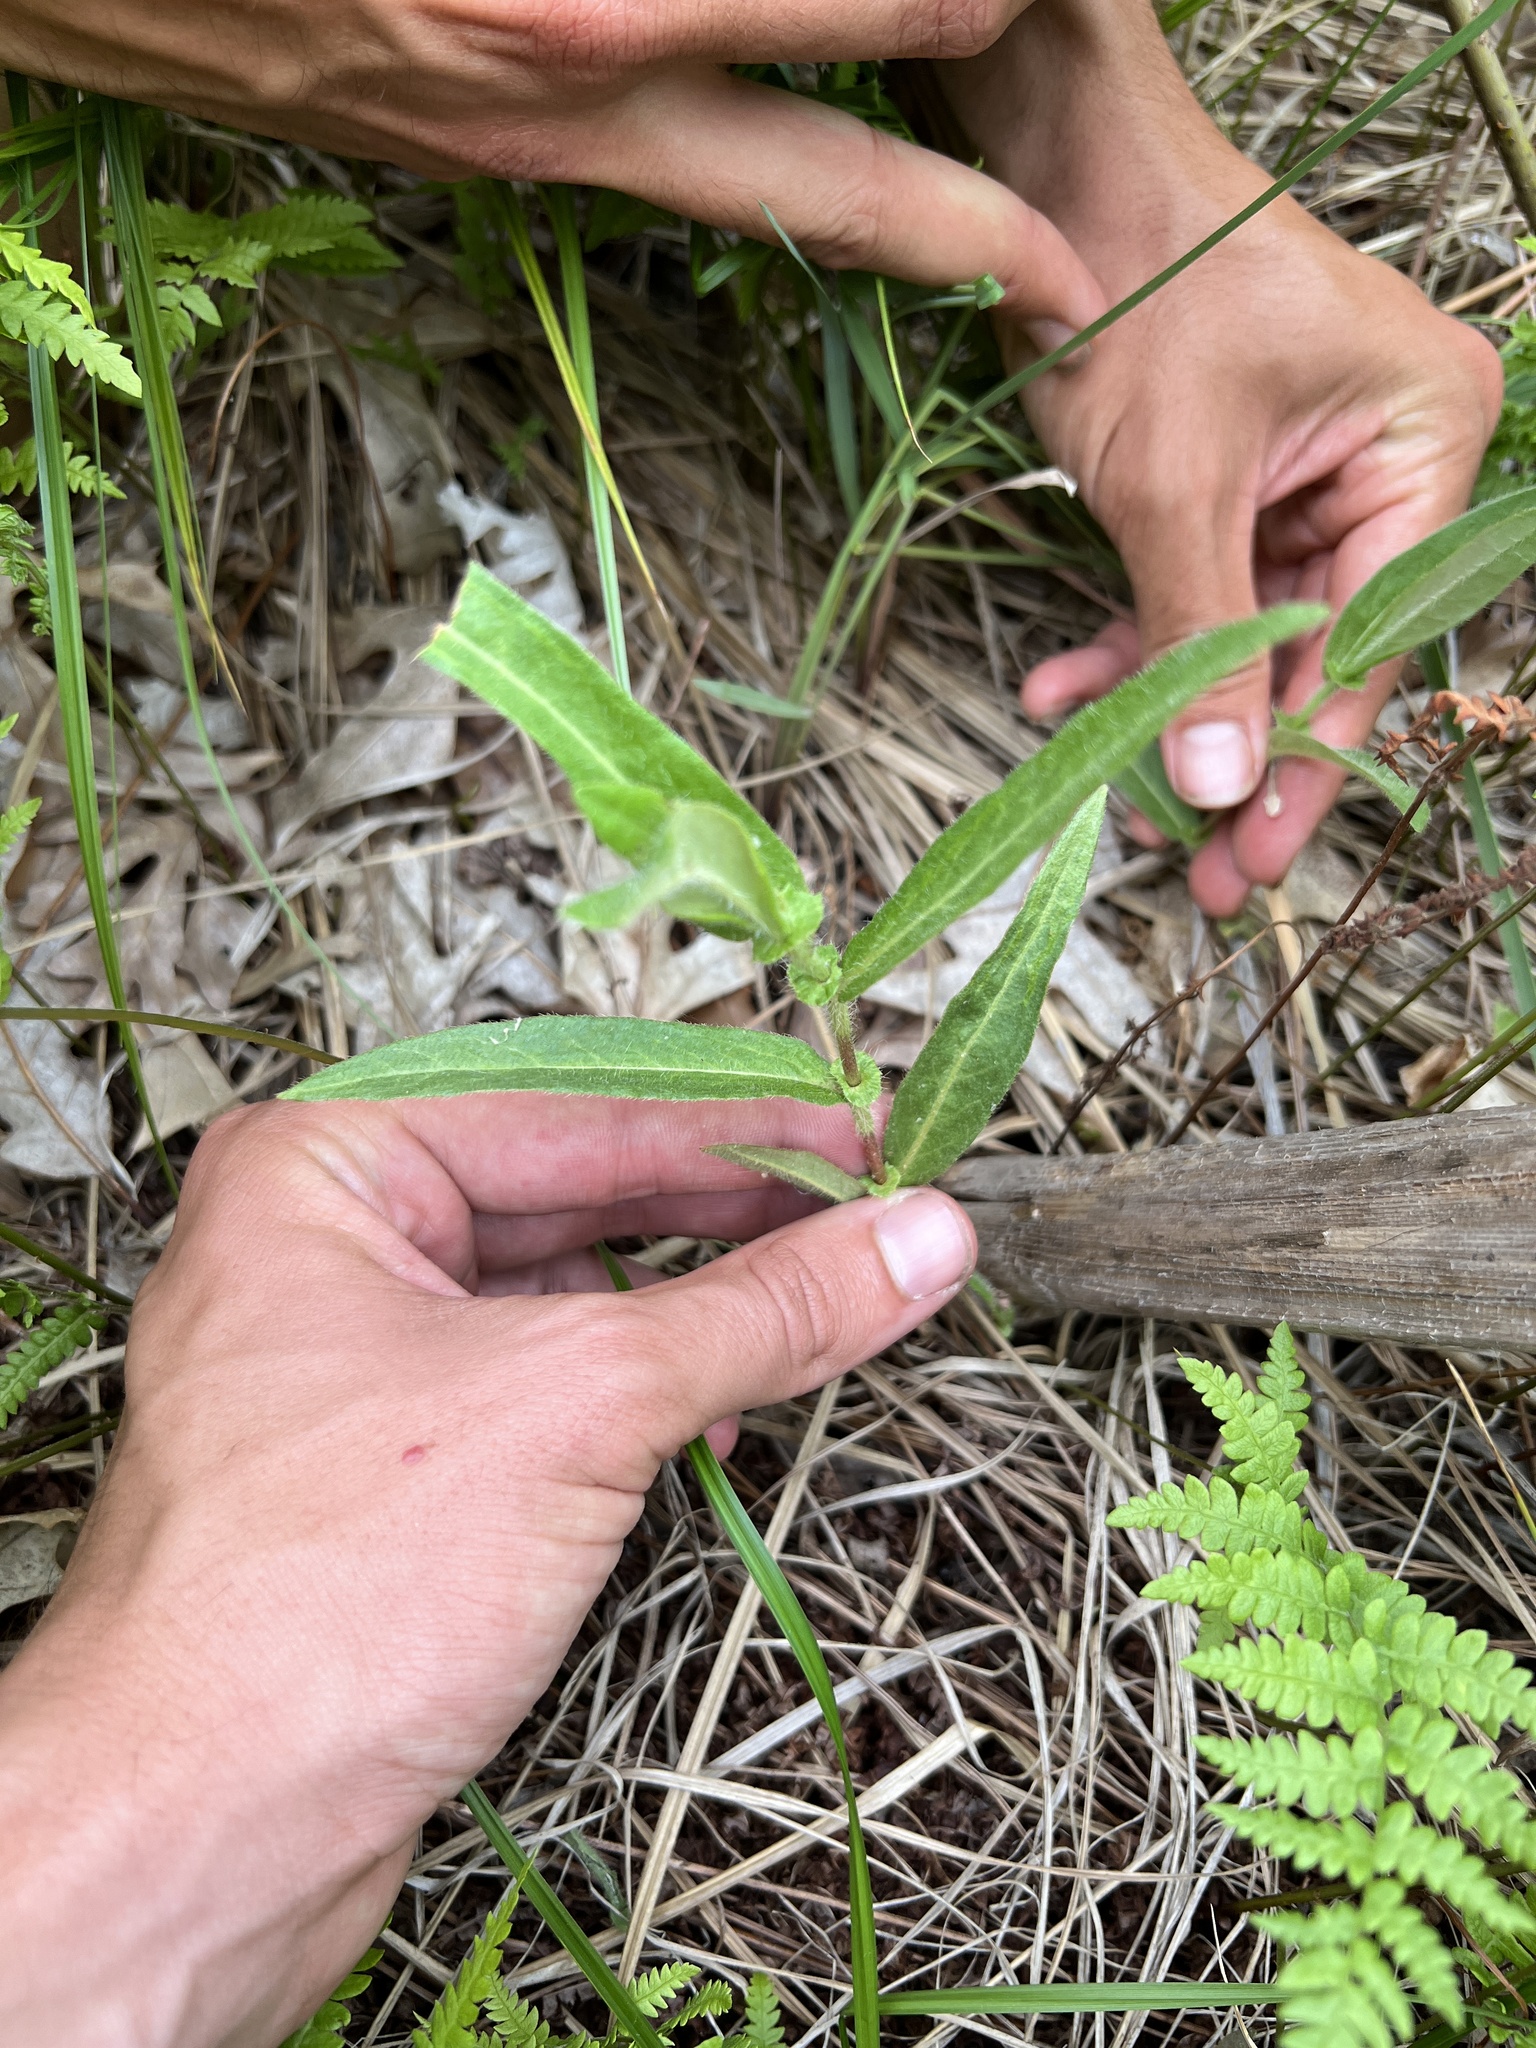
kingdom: Plantae
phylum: Tracheophyta
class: Magnoliopsida
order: Caryophyllales
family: Polygonaceae
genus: Persicaria
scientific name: Persicaria amphibia
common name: Amphibious bistort
